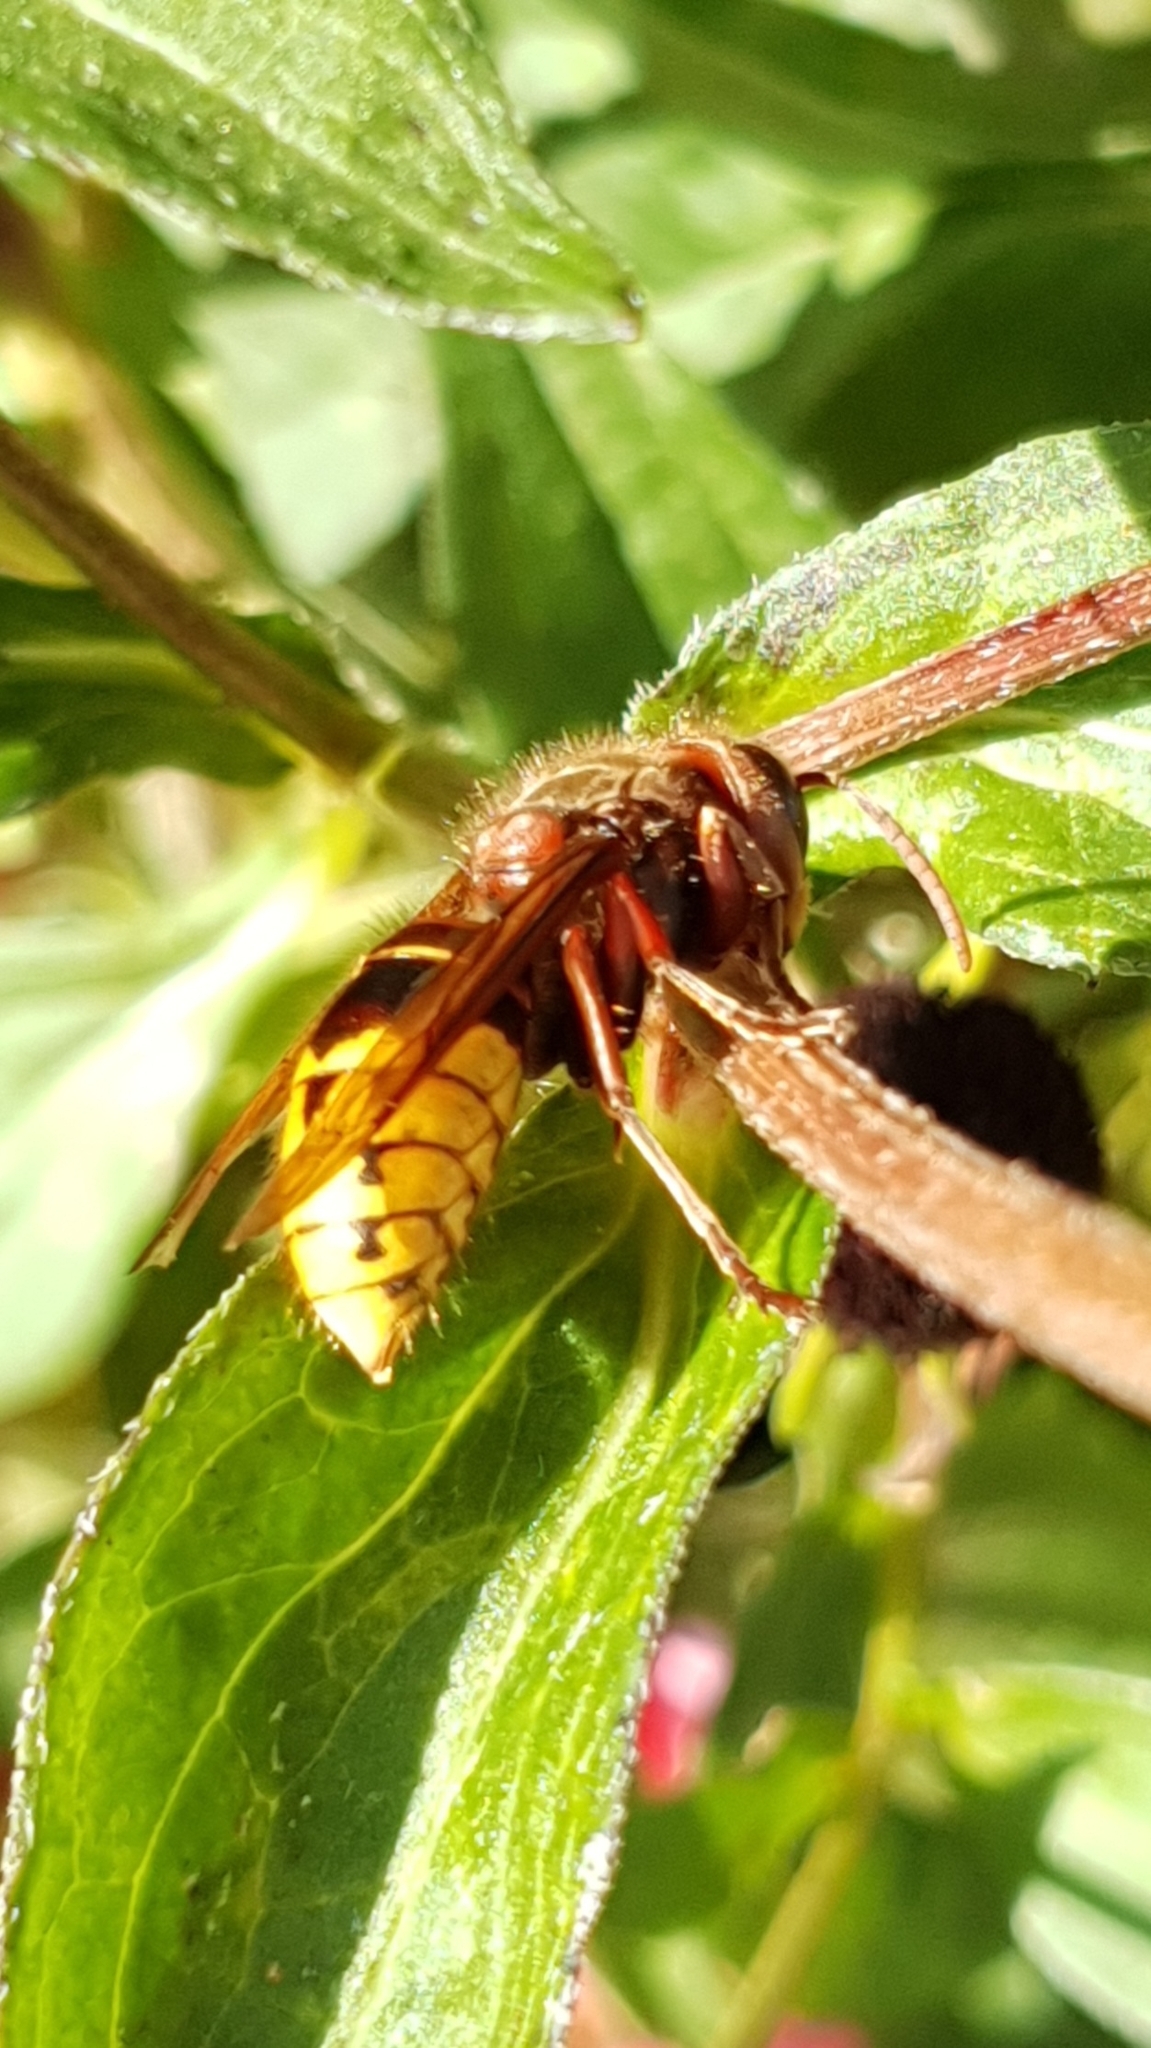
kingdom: Animalia
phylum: Arthropoda
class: Insecta
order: Hymenoptera
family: Vespidae
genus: Vespa
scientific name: Vespa crabro
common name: Hornet
